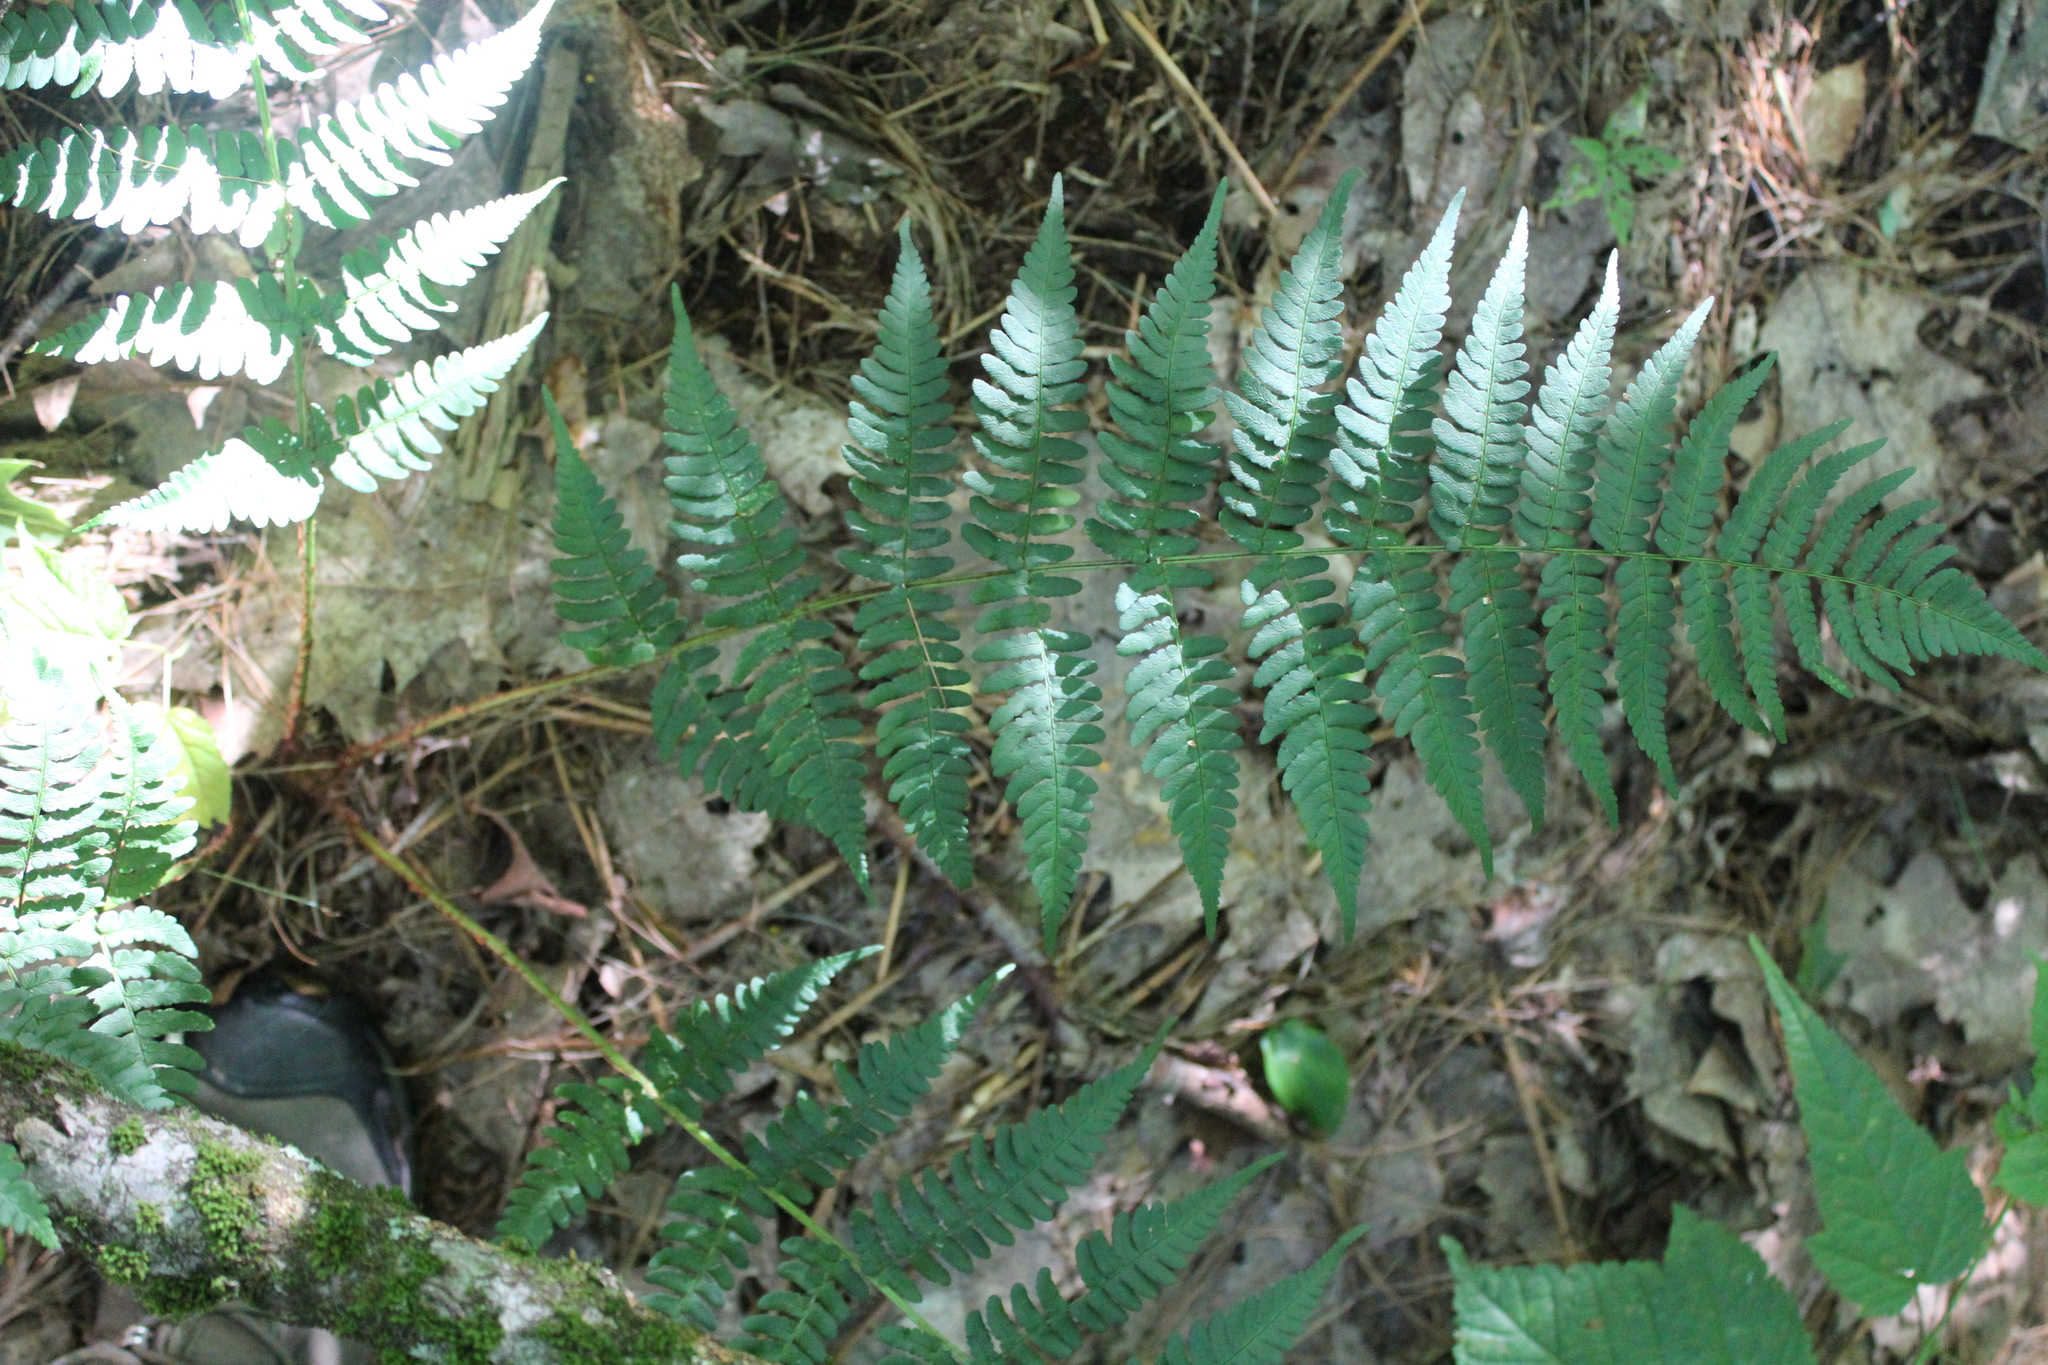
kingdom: Plantae
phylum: Tracheophyta
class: Polypodiopsida
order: Polypodiales
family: Dryopteridaceae
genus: Dryopteris
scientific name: Dryopteris marginalis
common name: Marginal wood fern
